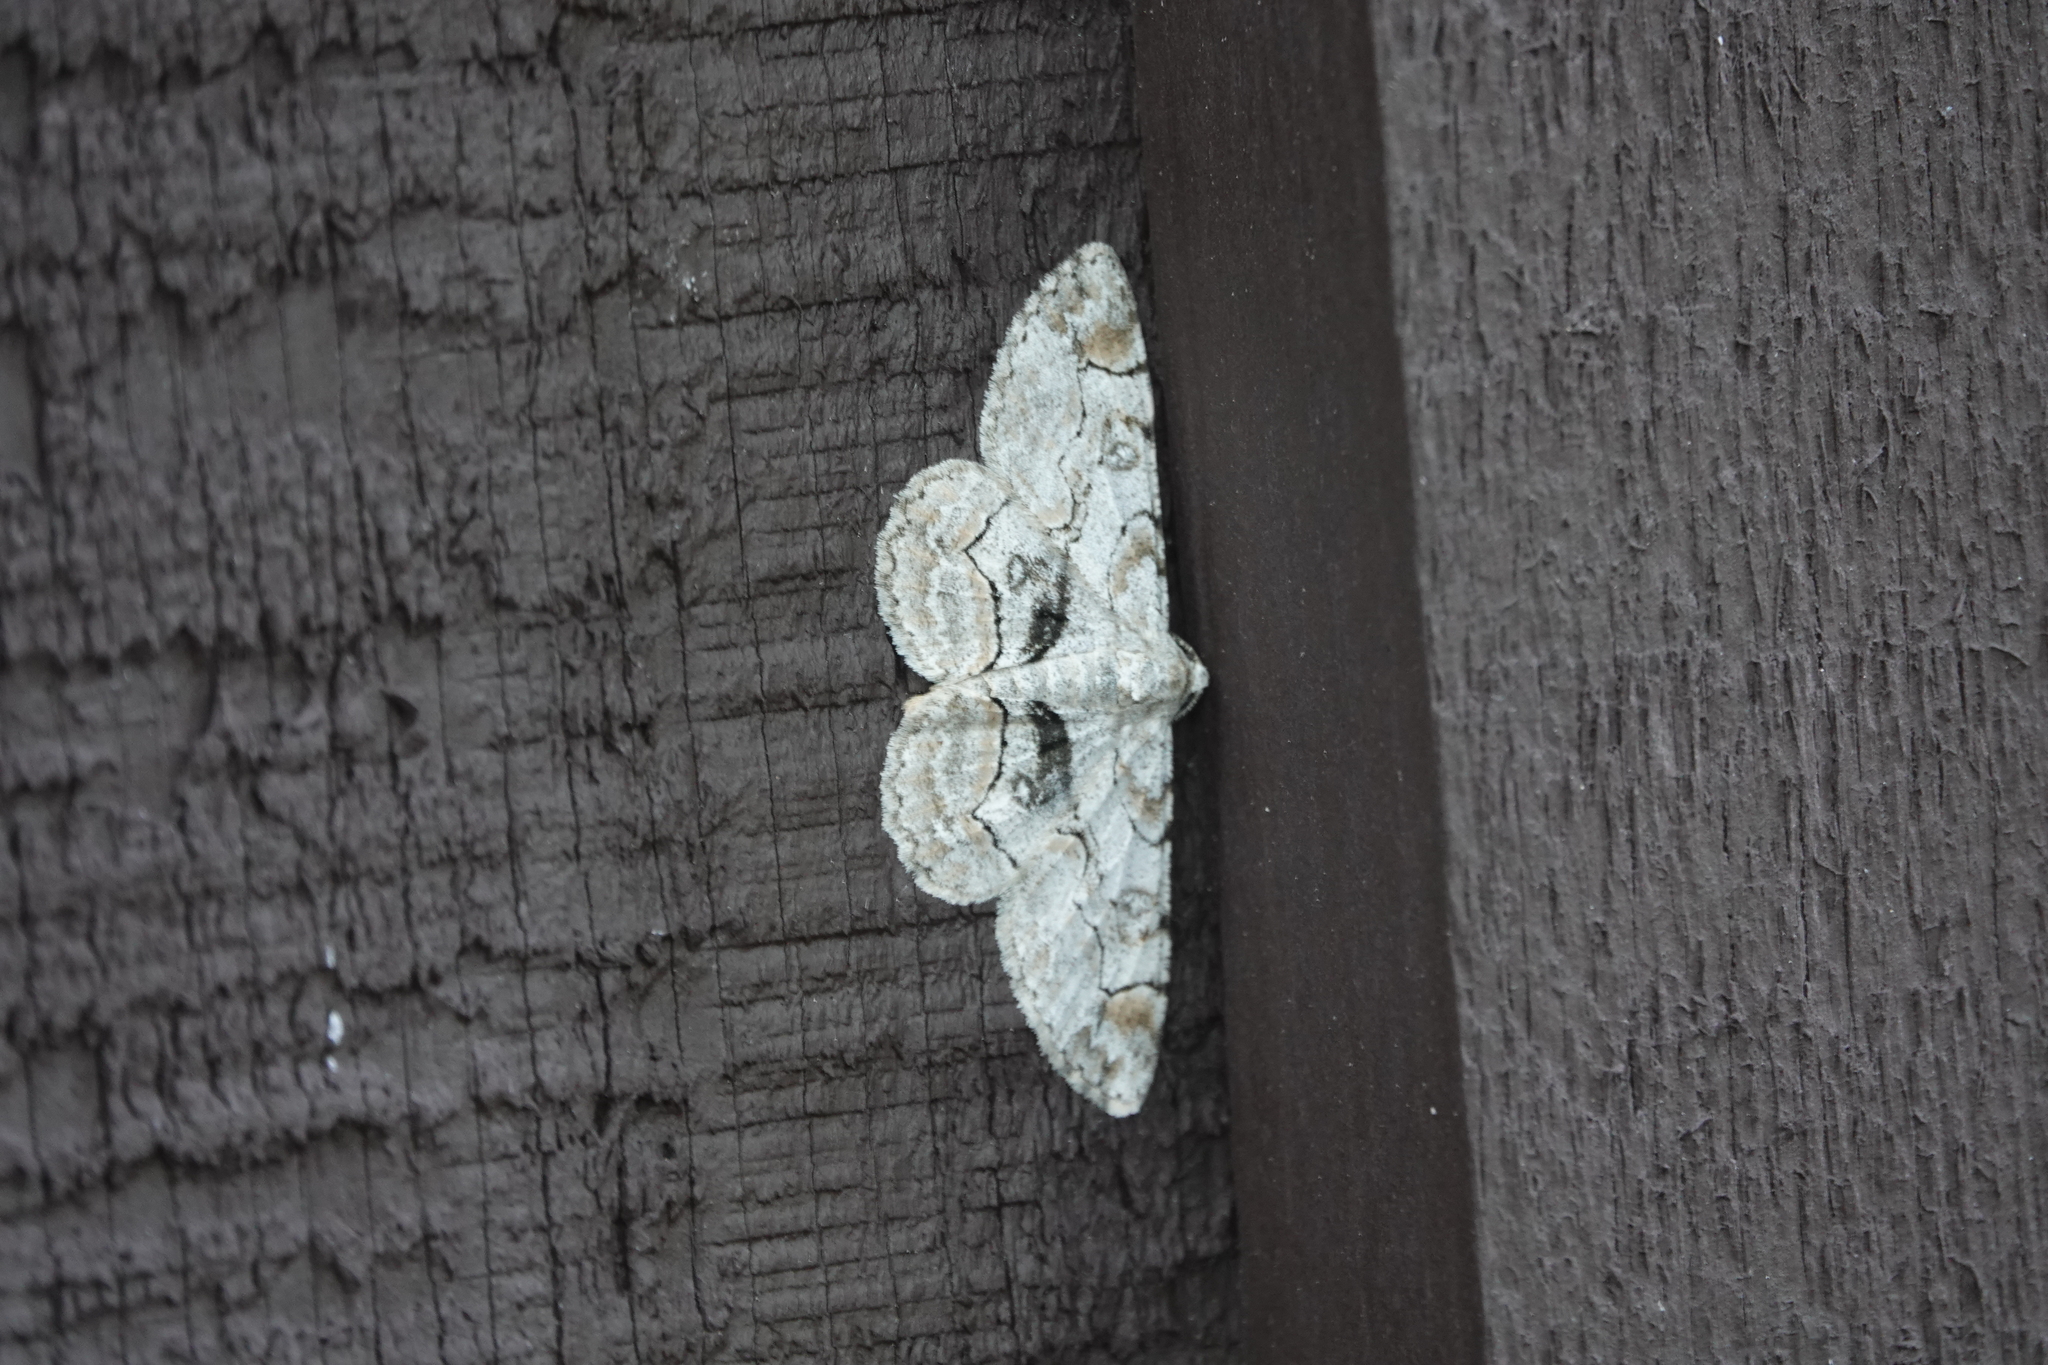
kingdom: Animalia
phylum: Arthropoda
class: Insecta
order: Lepidoptera
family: Geometridae
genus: Iridopsis
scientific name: Iridopsis larvaria
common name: Bent-line gray
